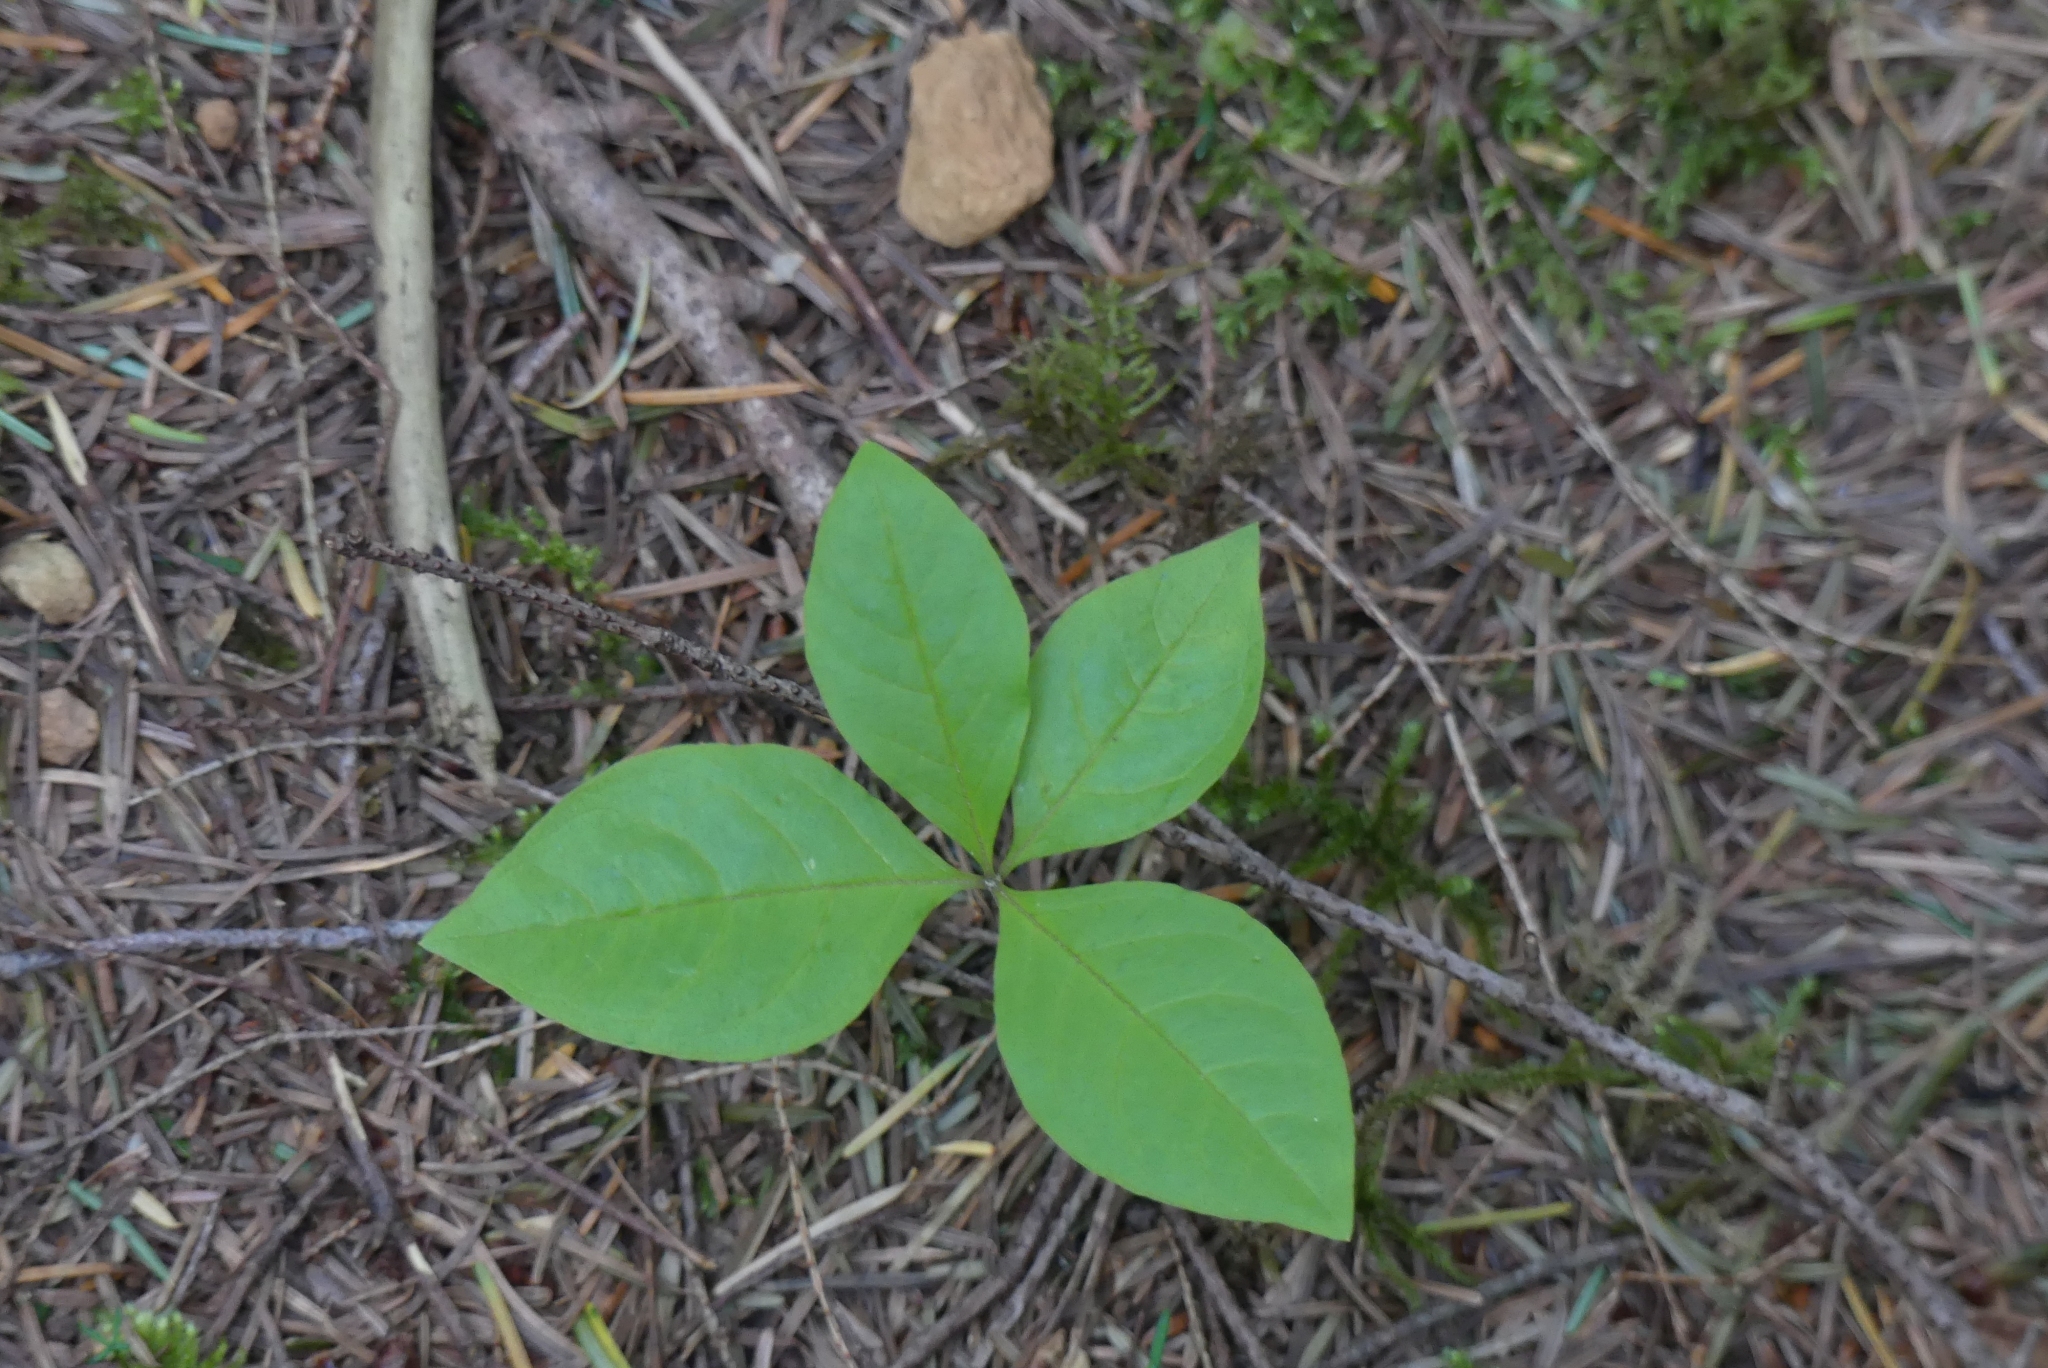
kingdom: Plantae
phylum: Tracheophyta
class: Magnoliopsida
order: Ericales
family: Primulaceae
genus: Lysimachia
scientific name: Lysimachia latifolia
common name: Pacific starflower
